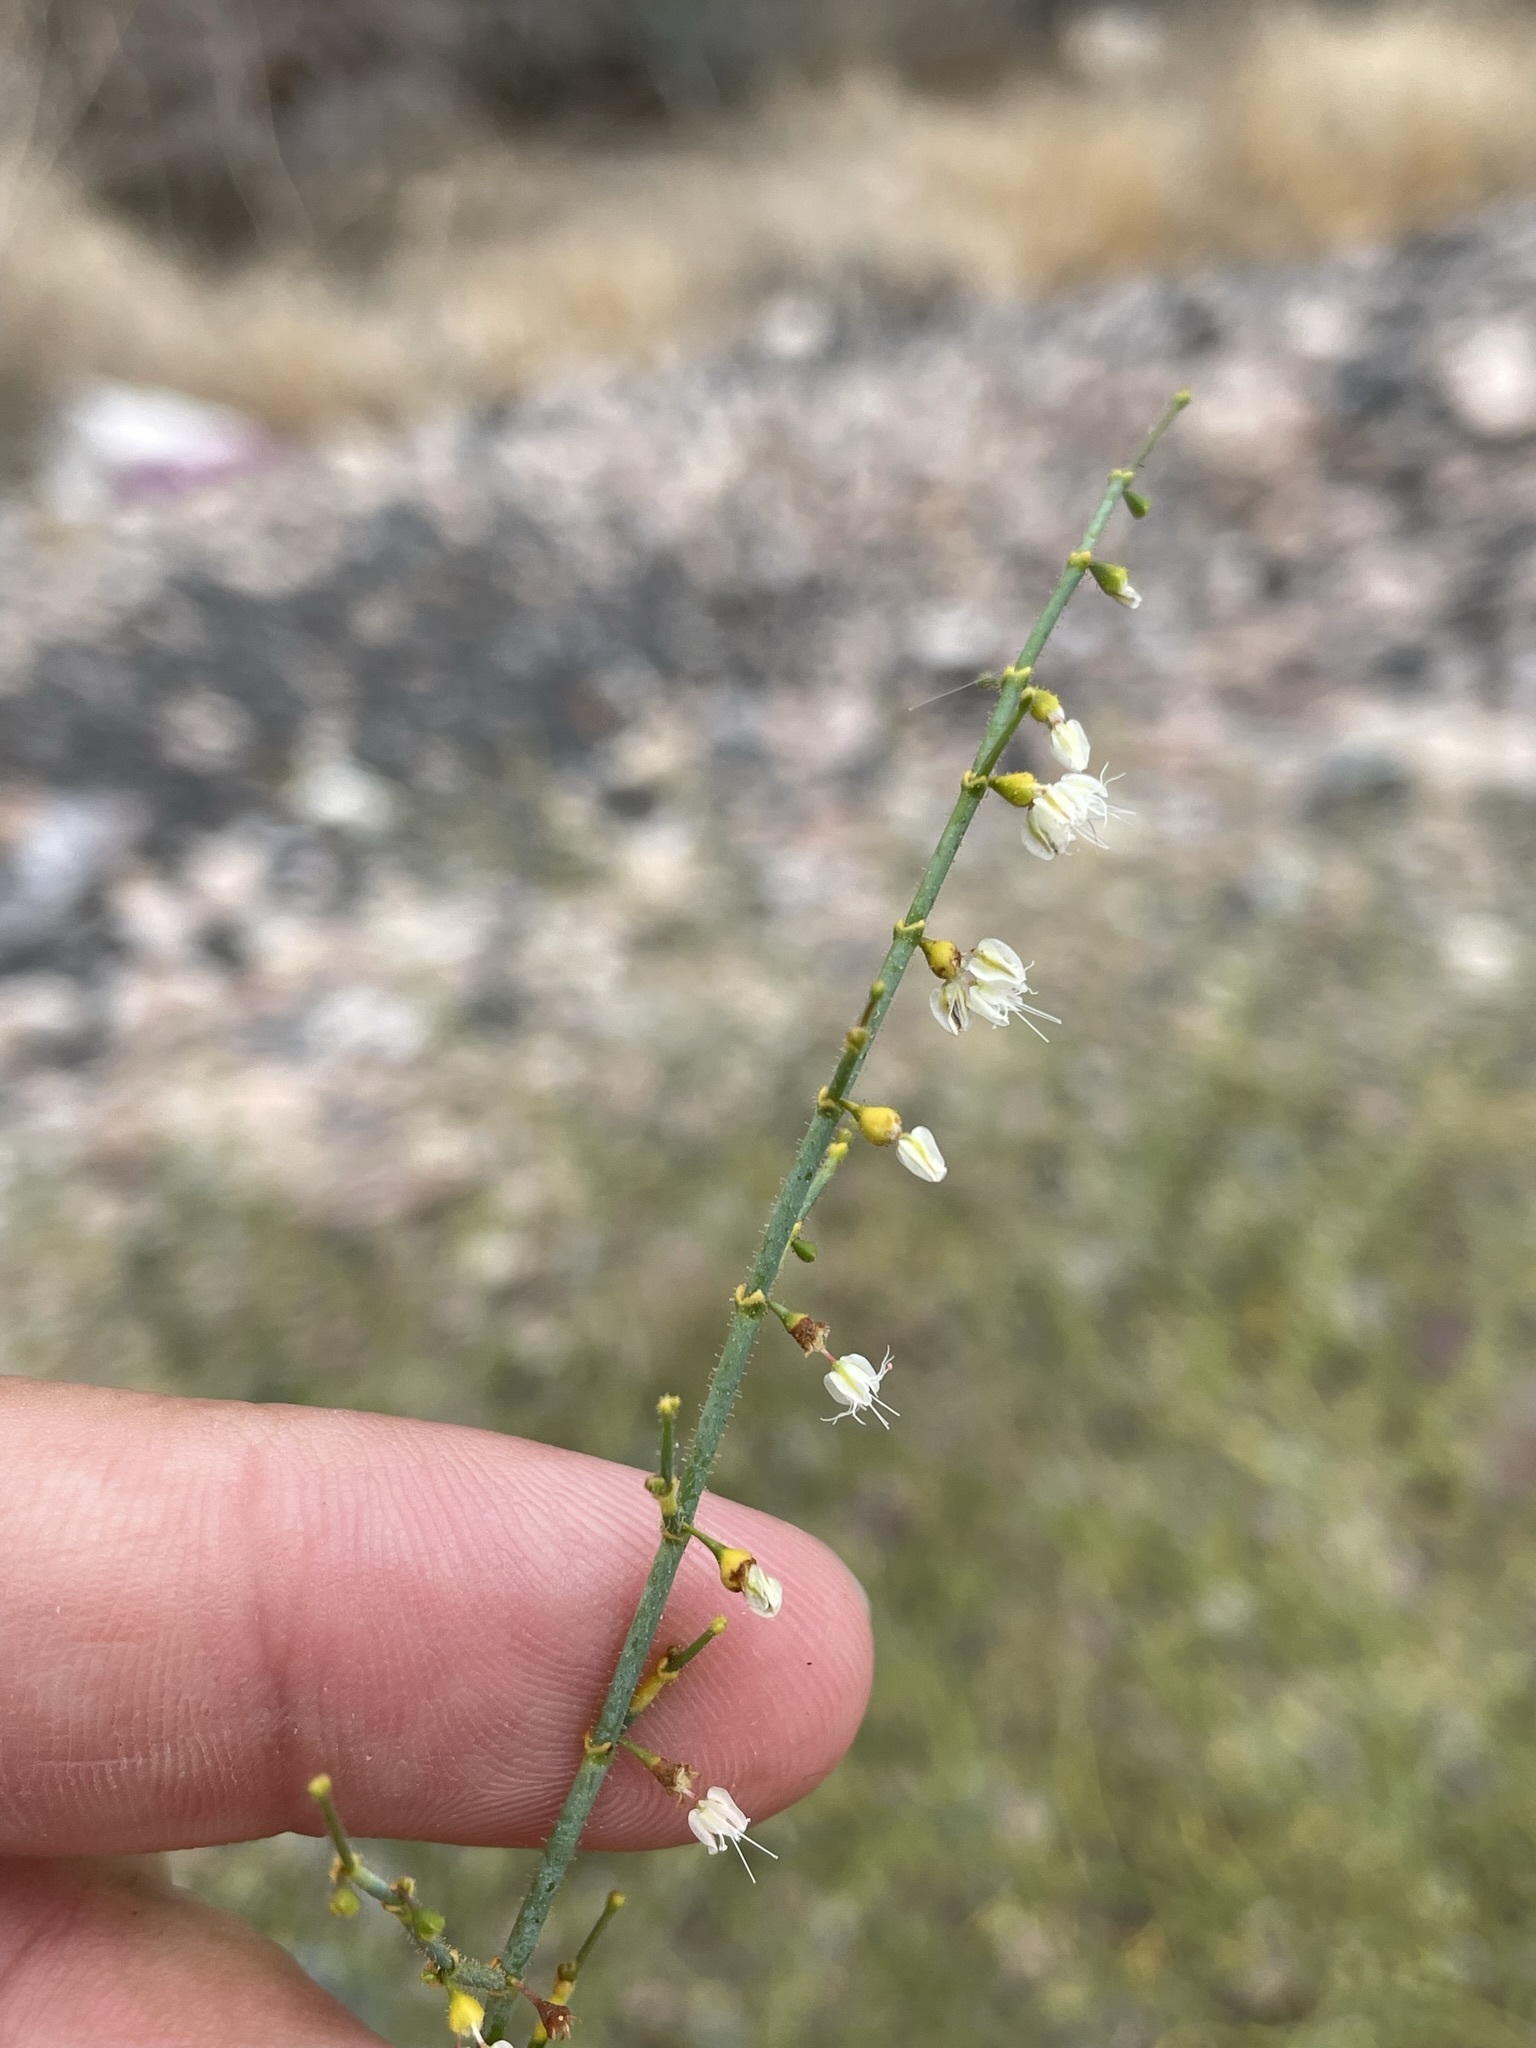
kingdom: Plantae
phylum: Tracheophyta
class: Magnoliopsida
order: Caryophyllales
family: Polygonaceae
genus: Eriogonum
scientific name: Eriogonum brachypodum
